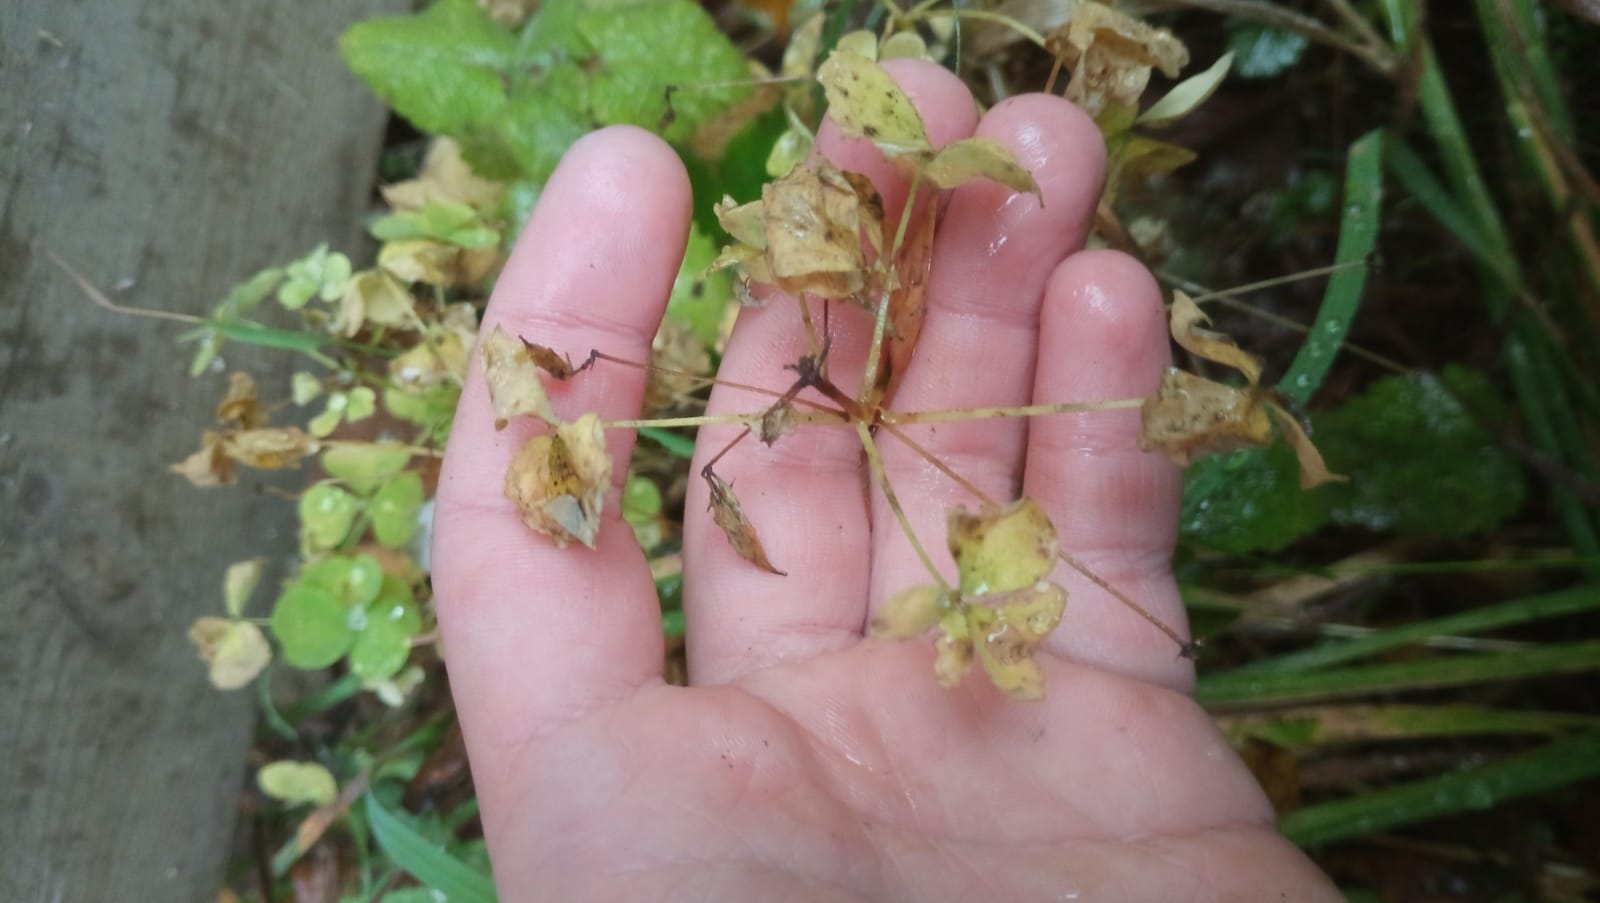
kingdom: Plantae
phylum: Tracheophyta
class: Magnoliopsida
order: Oxalidales
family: Oxalidaceae
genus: Oxalis
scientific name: Oxalis stricta
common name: Upright yellow-sorrel
